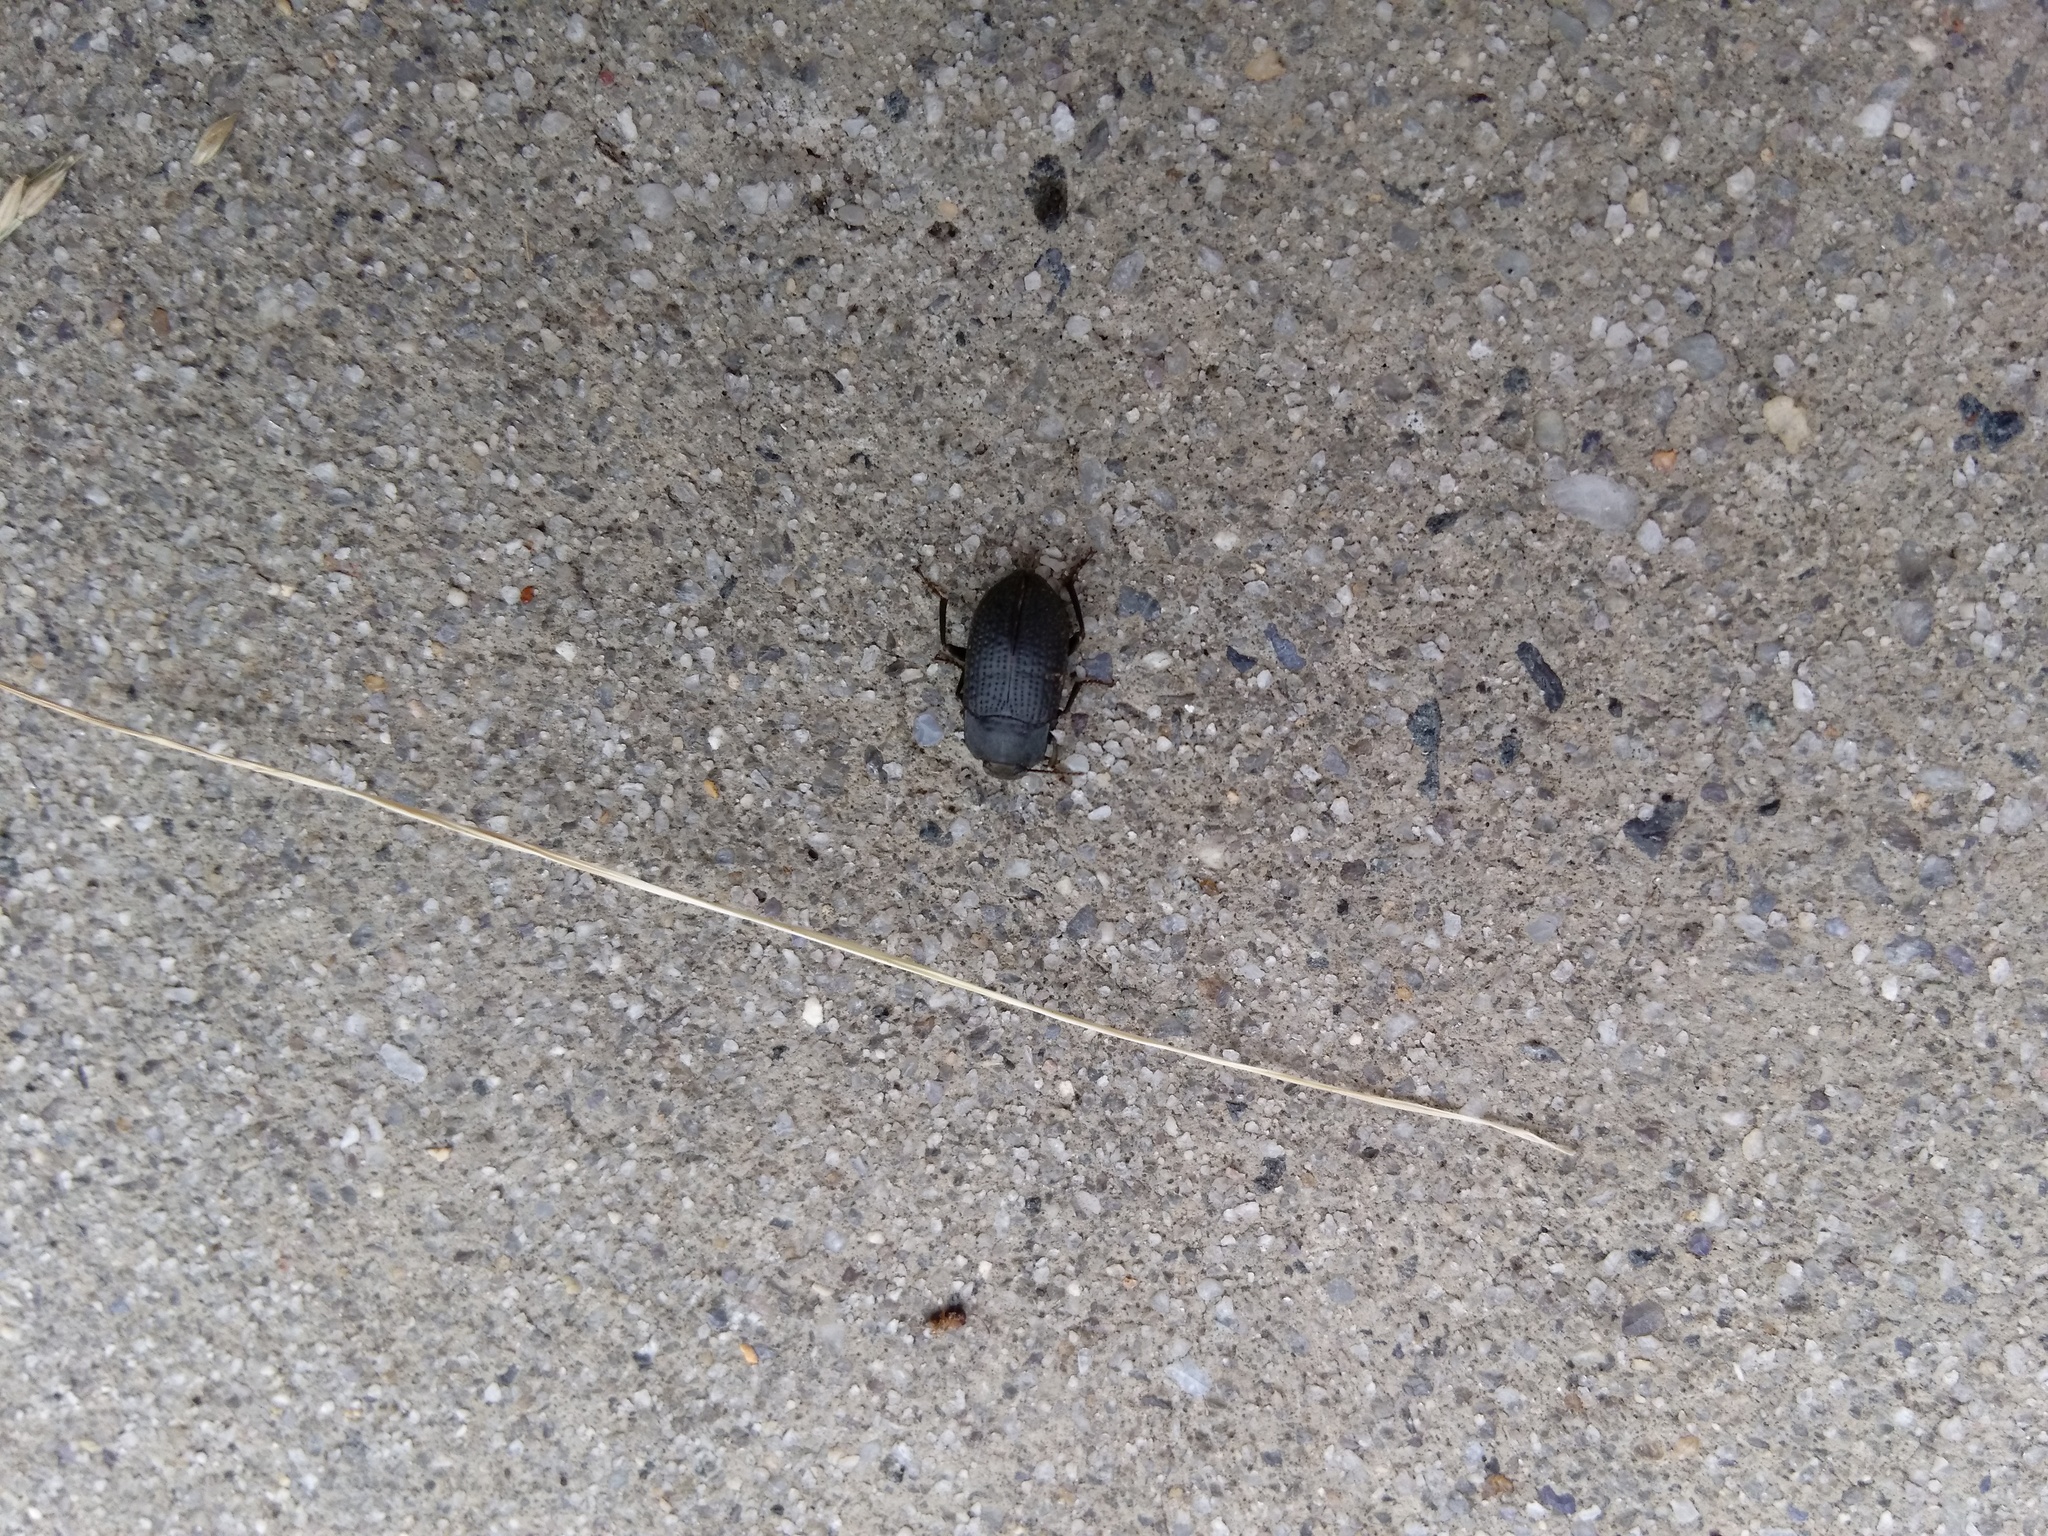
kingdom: Animalia
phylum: Arthropoda
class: Insecta
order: Coleoptera
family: Tenebrionidae
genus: Asiopus
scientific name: Asiopus
